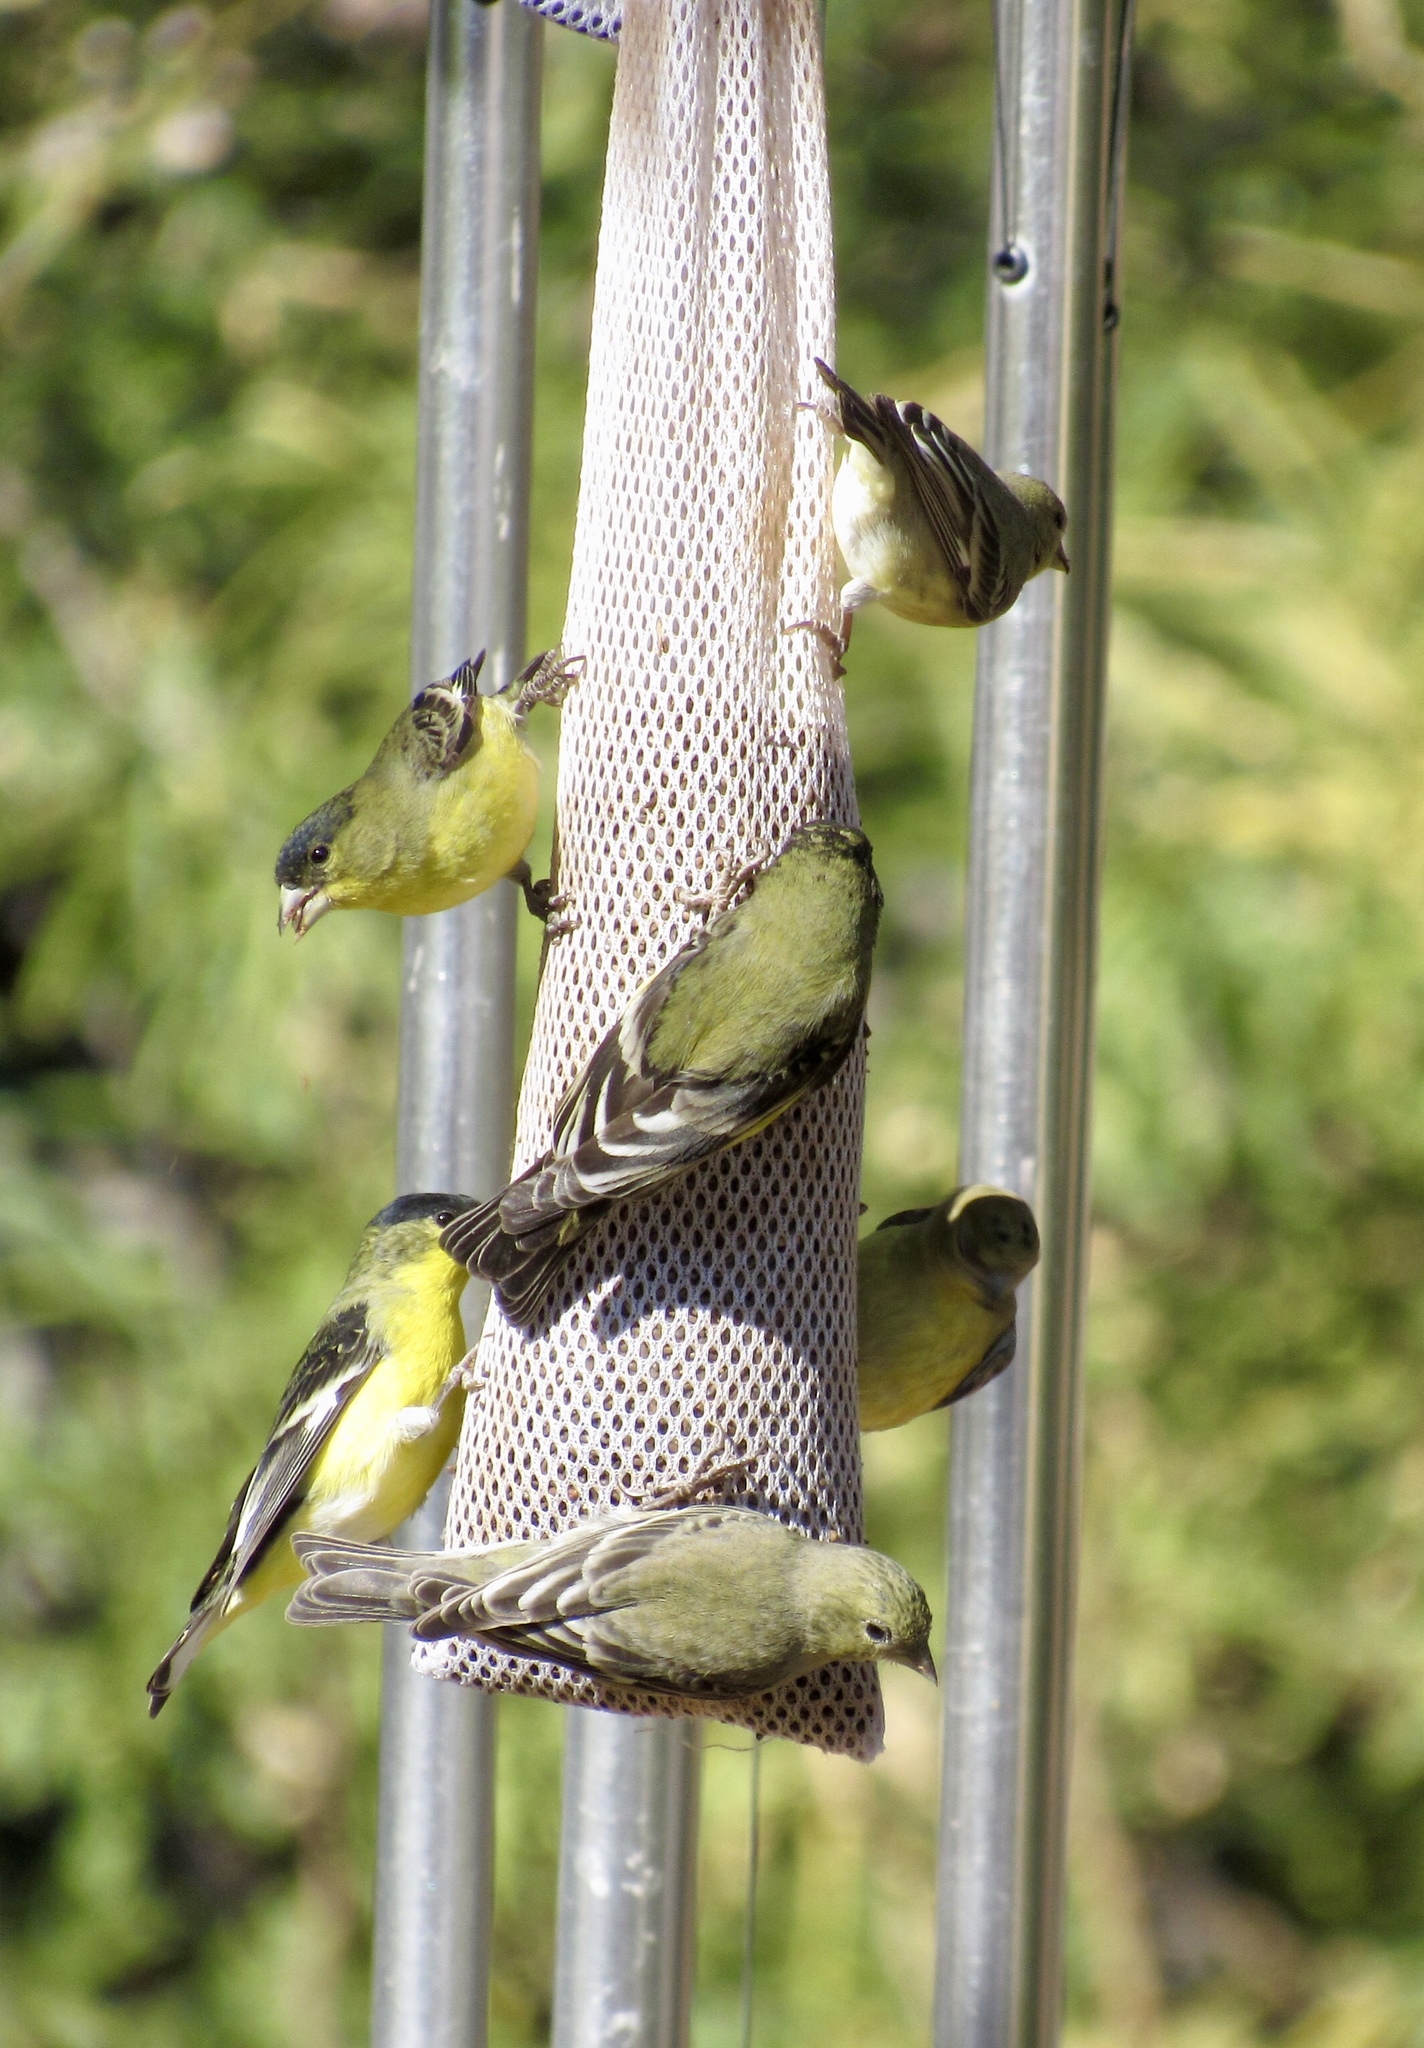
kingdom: Animalia
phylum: Chordata
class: Aves
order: Passeriformes
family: Fringillidae
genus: Spinus
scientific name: Spinus psaltria
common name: Lesser goldfinch
